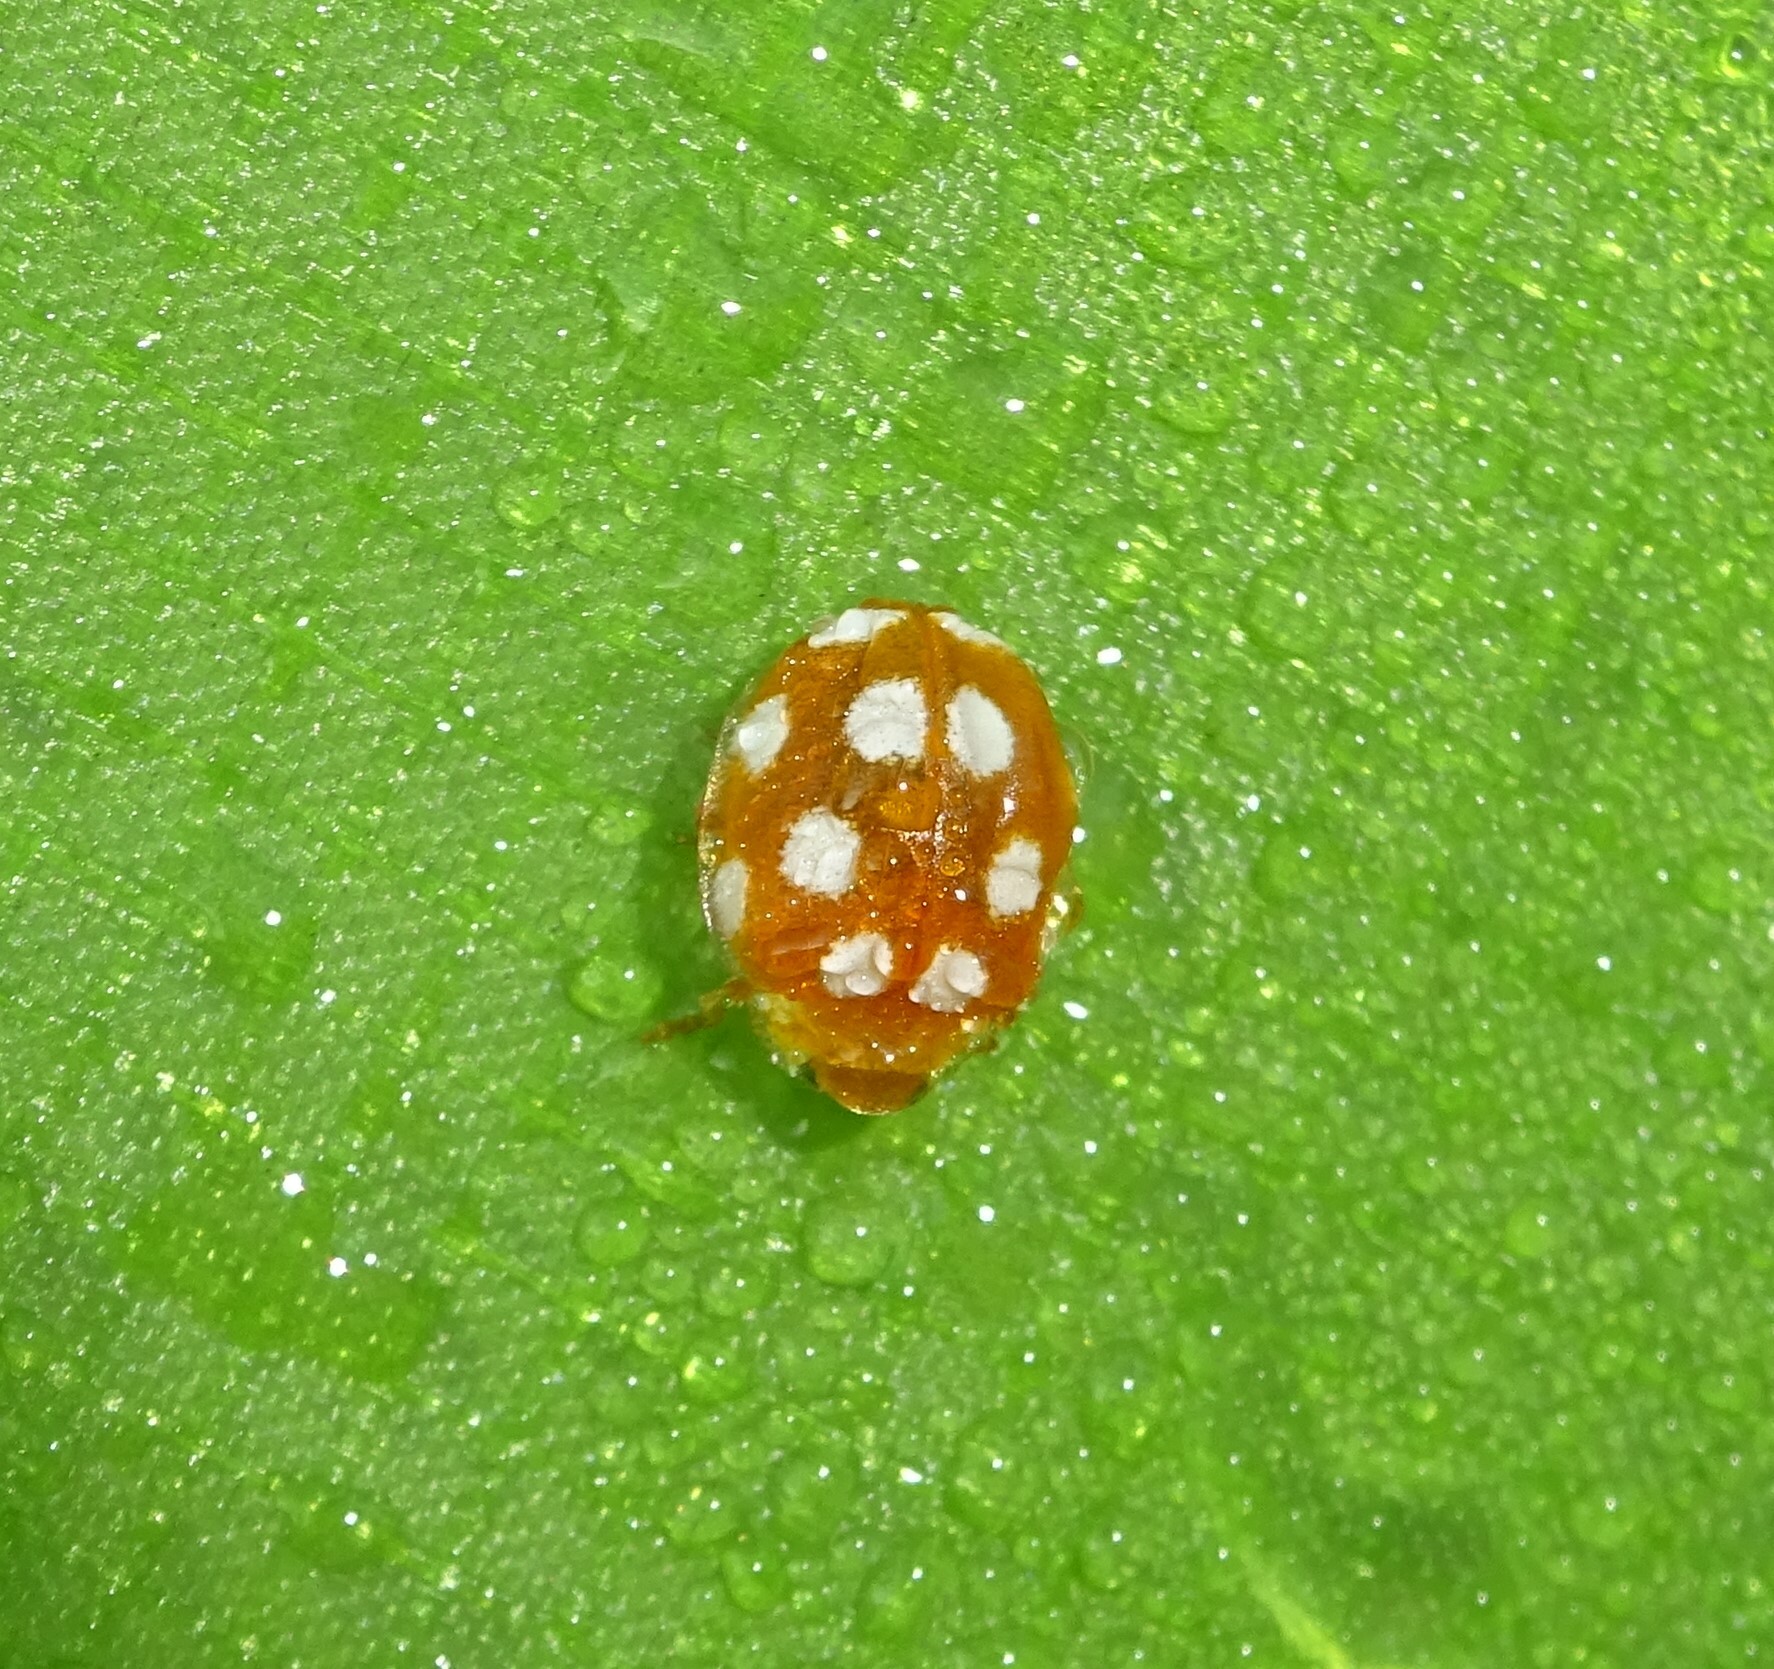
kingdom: Animalia
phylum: Arthropoda
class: Insecta
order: Coleoptera
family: Coccinellidae
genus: Vibidia
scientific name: Vibidia duodecimguttata
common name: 12-spot ladybird
